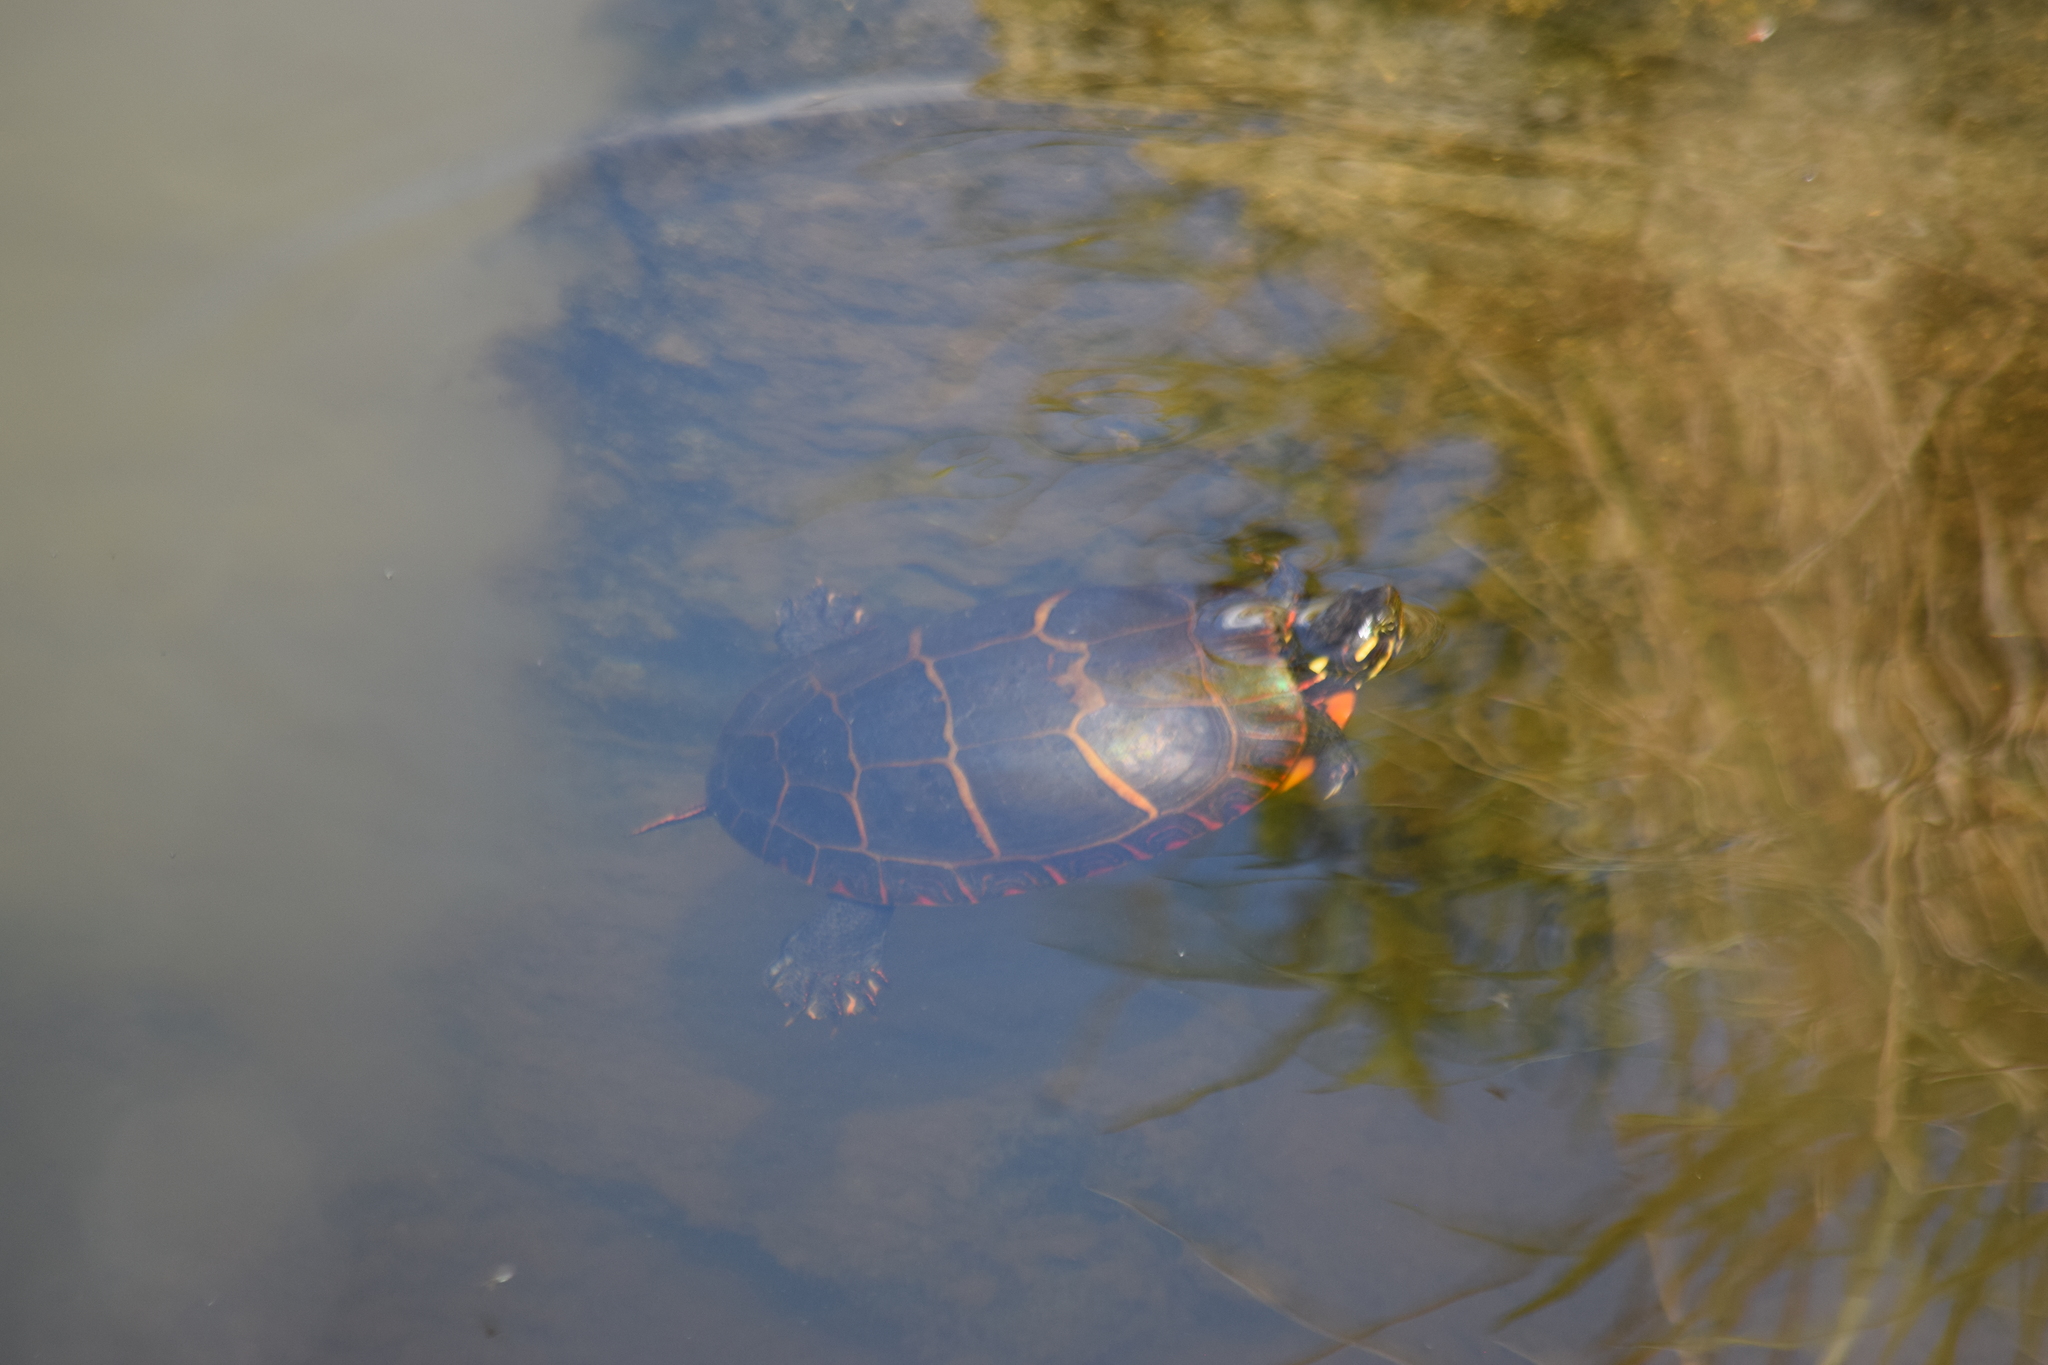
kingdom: Animalia
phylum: Chordata
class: Testudines
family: Emydidae
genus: Chrysemys
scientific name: Chrysemys picta
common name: Painted turtle
